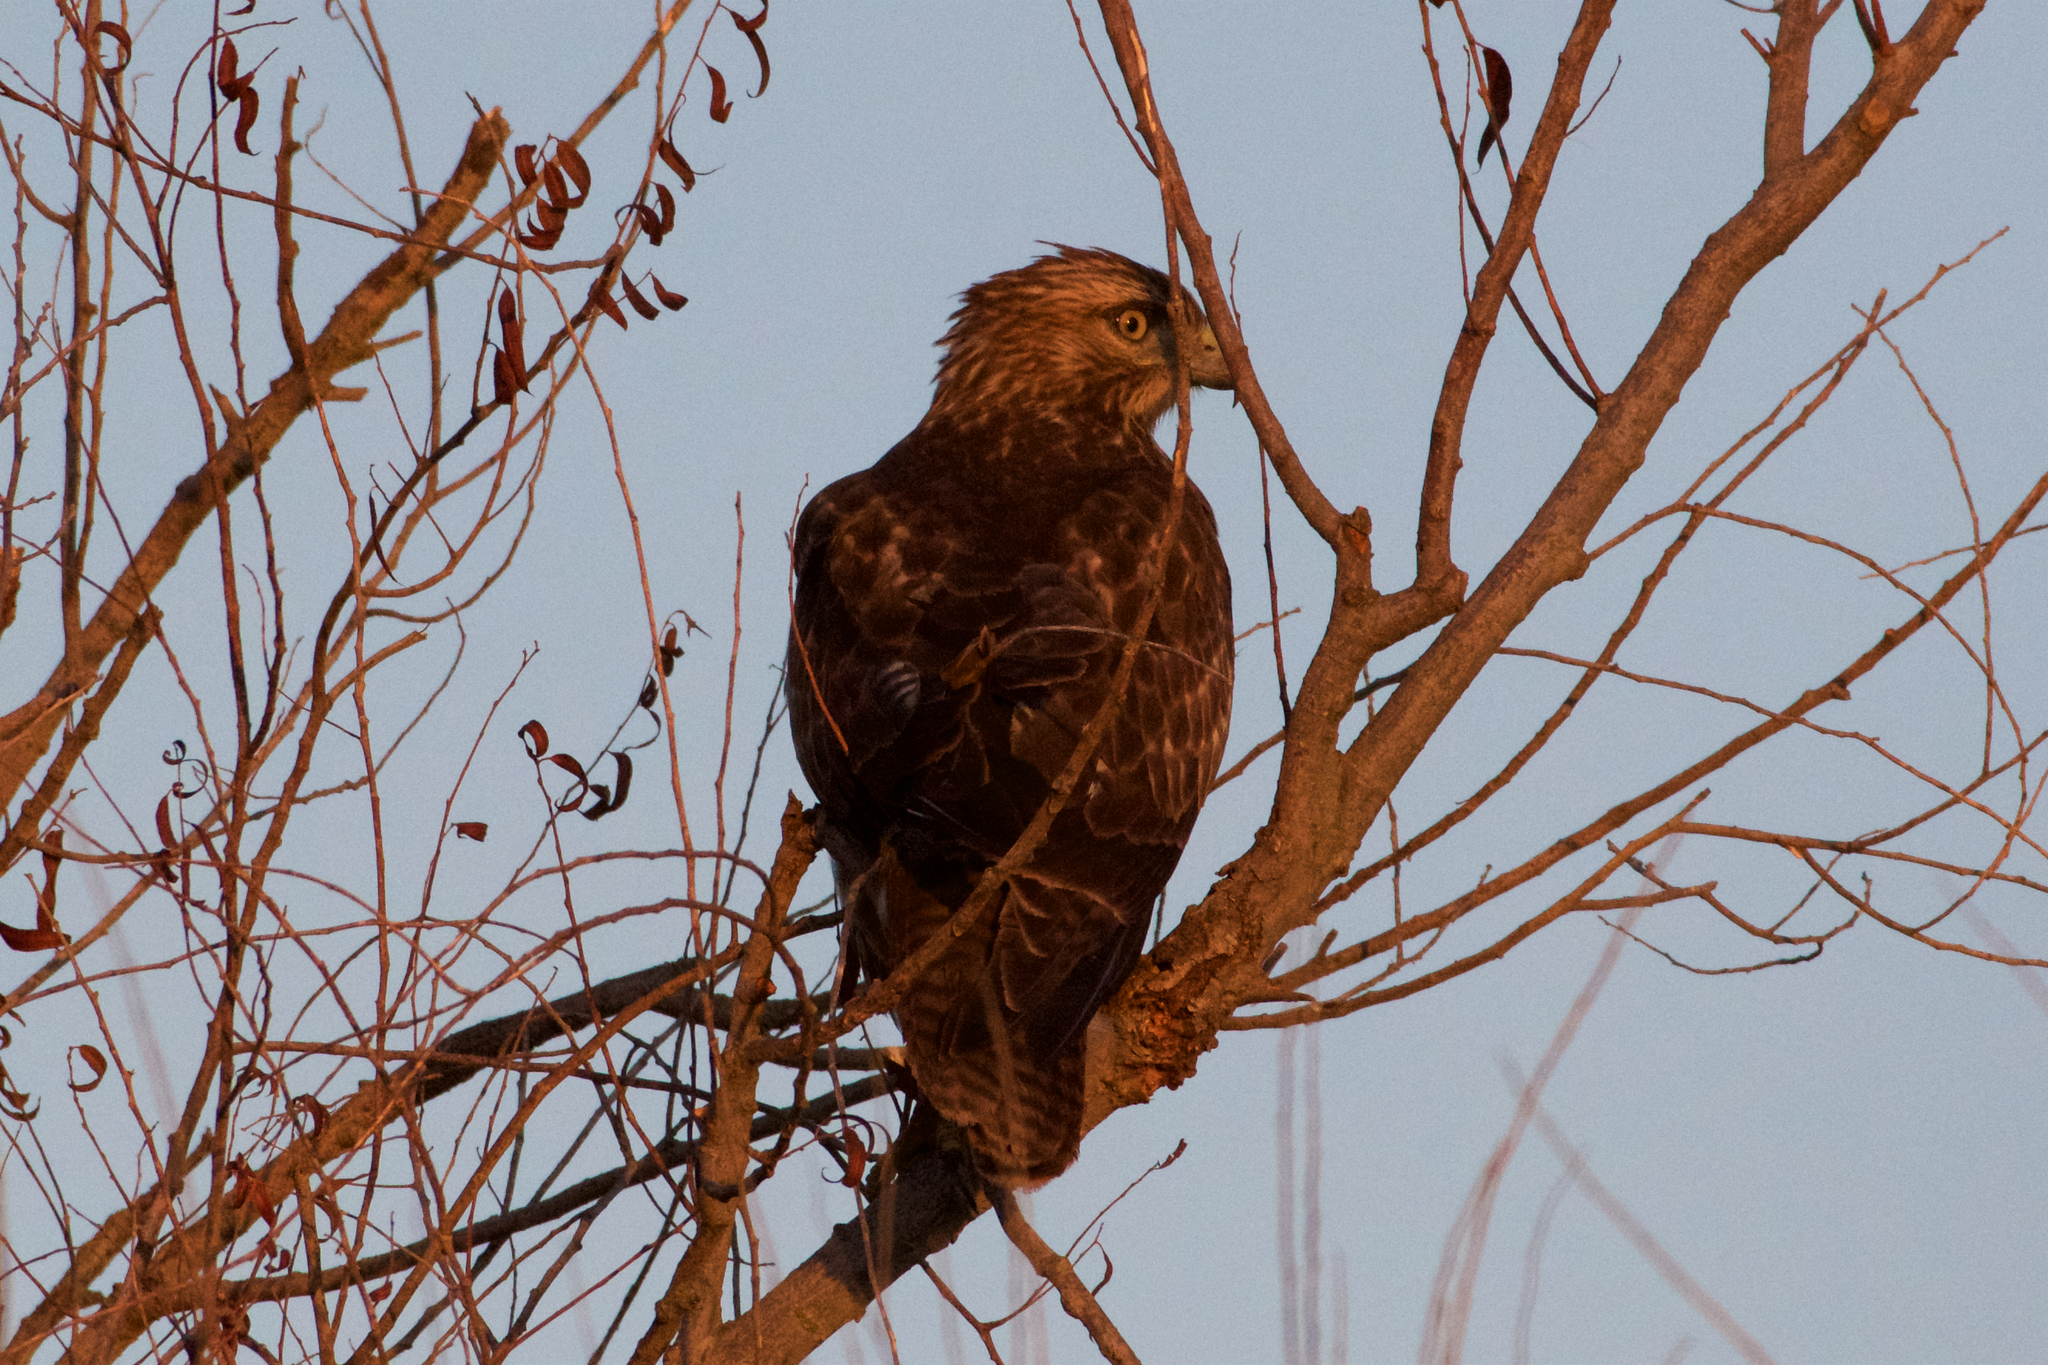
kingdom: Animalia
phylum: Chordata
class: Aves
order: Accipitriformes
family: Accipitridae
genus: Buteo
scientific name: Buteo jamaicensis
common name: Red-tailed hawk
